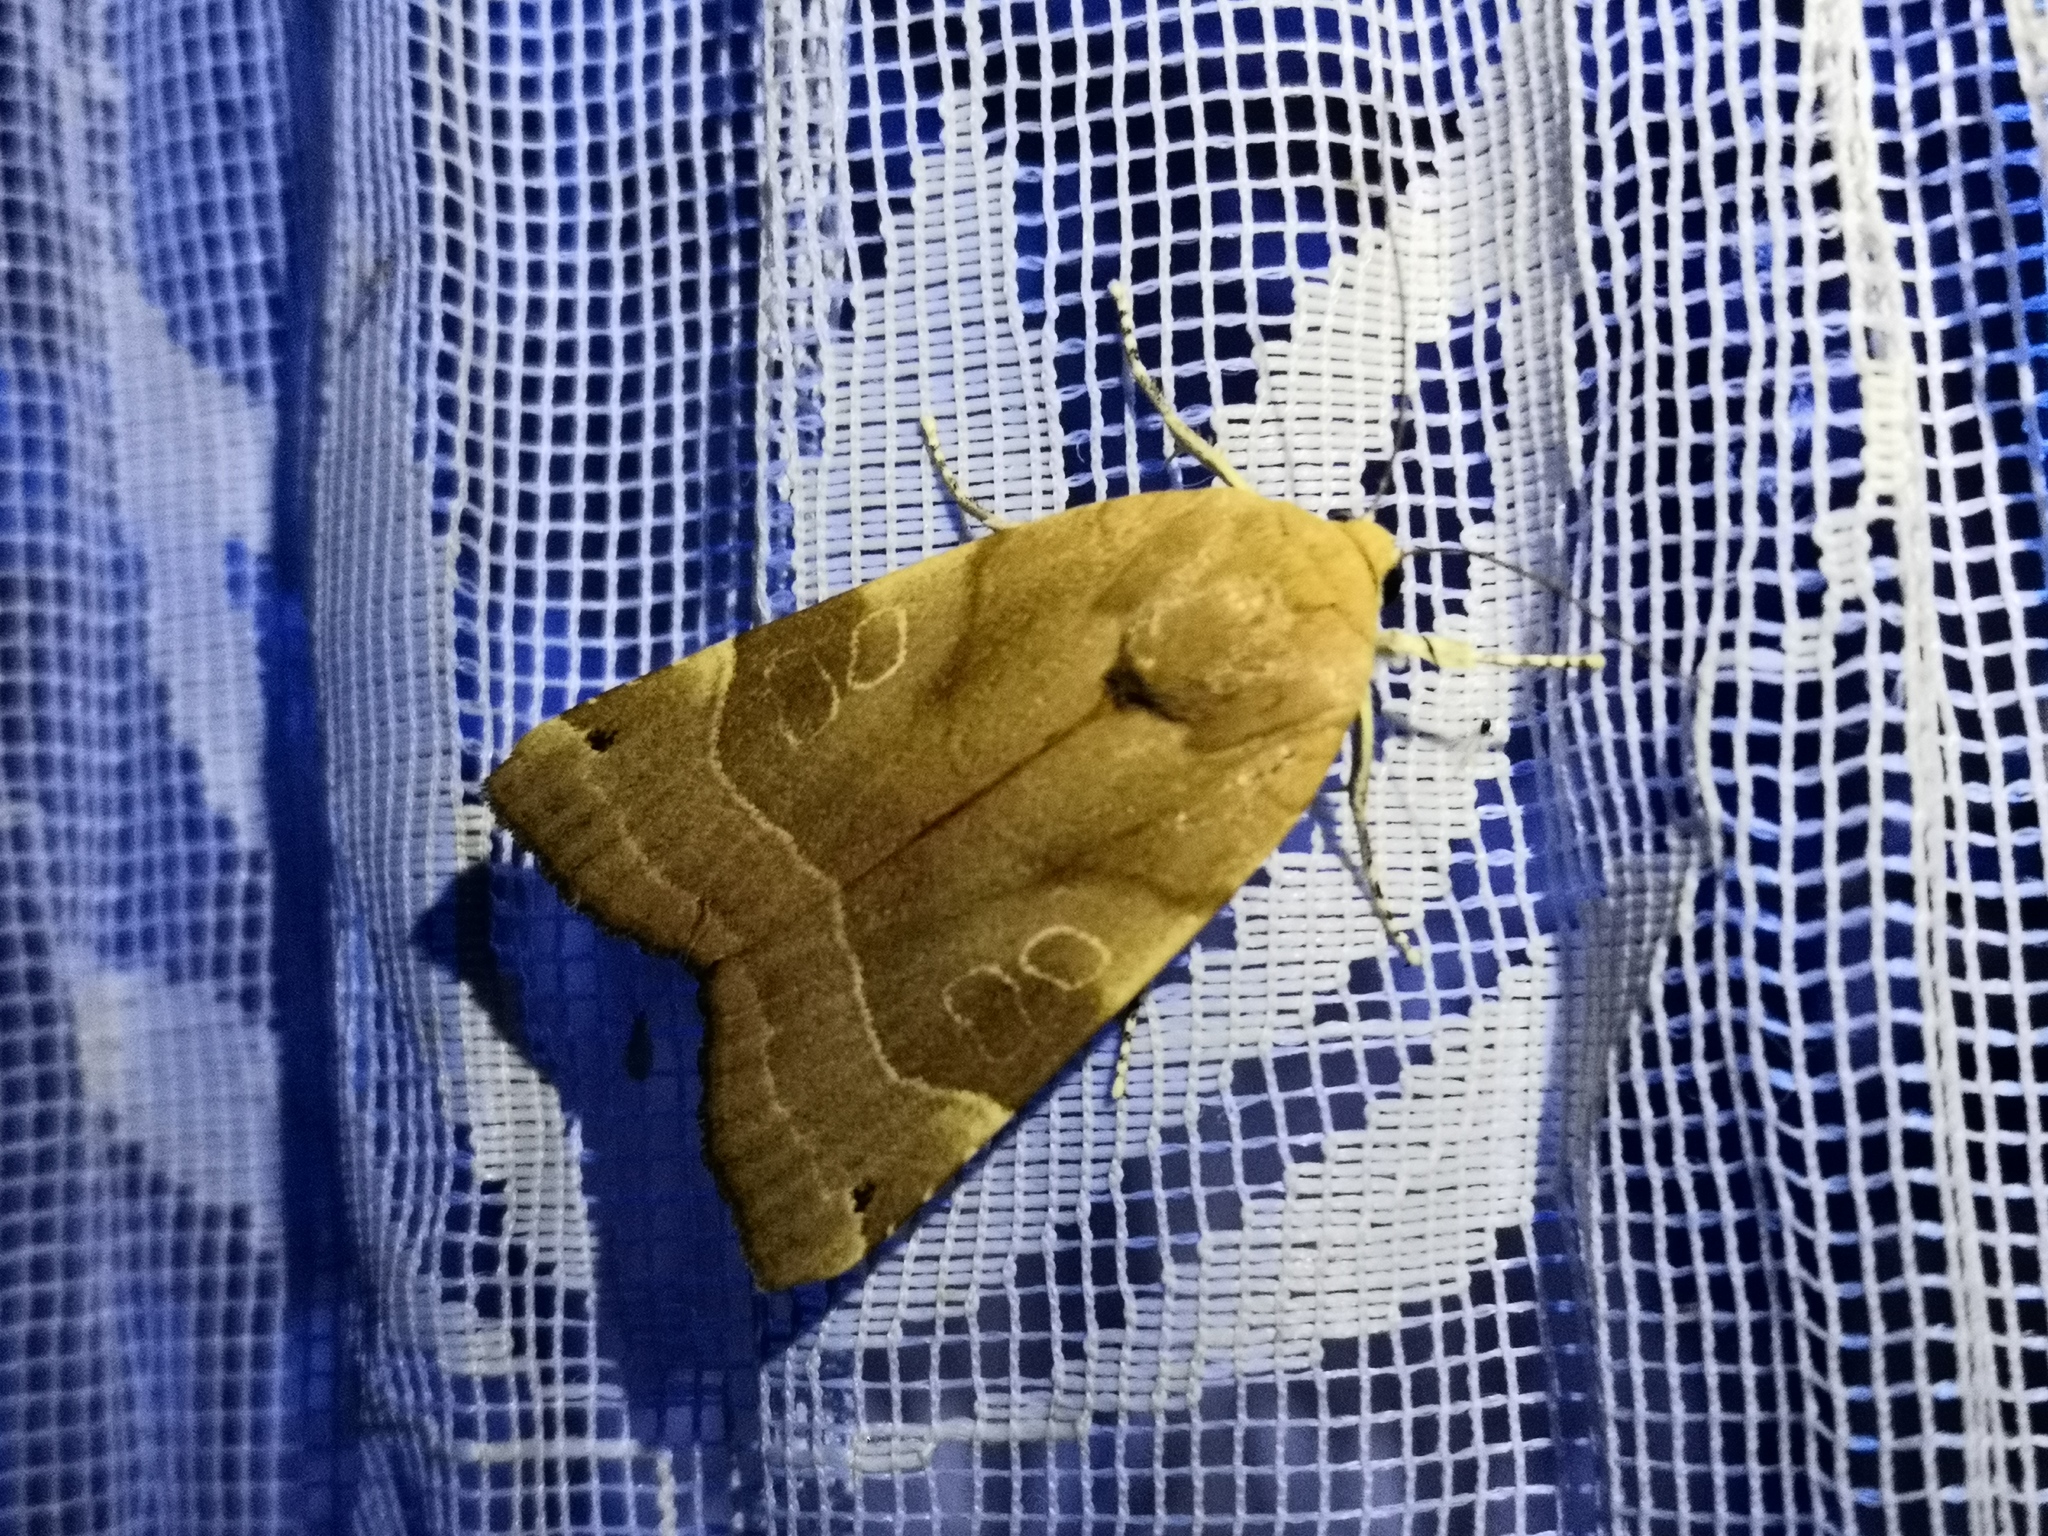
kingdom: Animalia
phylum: Arthropoda
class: Insecta
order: Lepidoptera
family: Noctuidae
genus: Noctua
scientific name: Noctua fimbriata
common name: Broad-bordered yellow underwing
